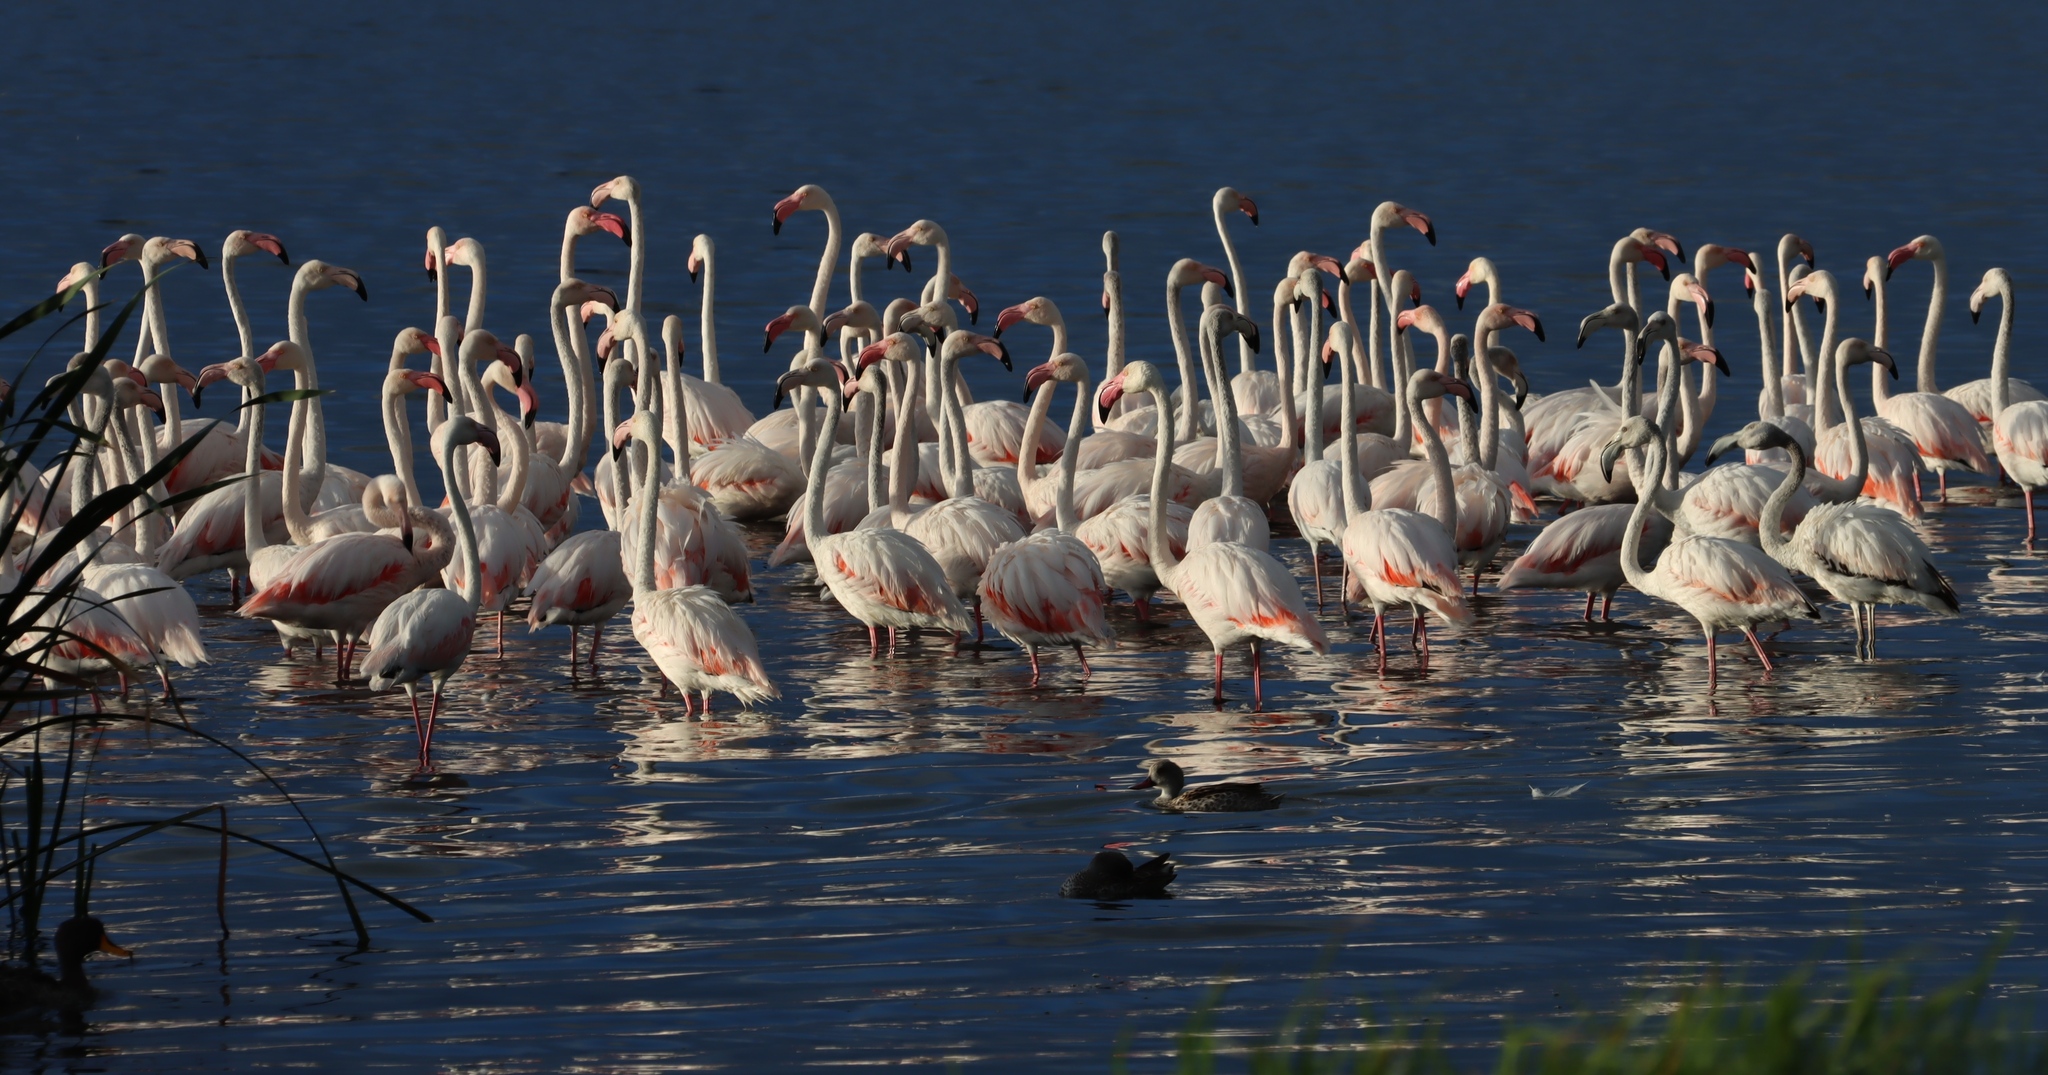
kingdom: Animalia
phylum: Chordata
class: Aves
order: Phoenicopteriformes
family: Phoenicopteridae
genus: Phoenicopterus
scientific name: Phoenicopterus roseus
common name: Greater flamingo
